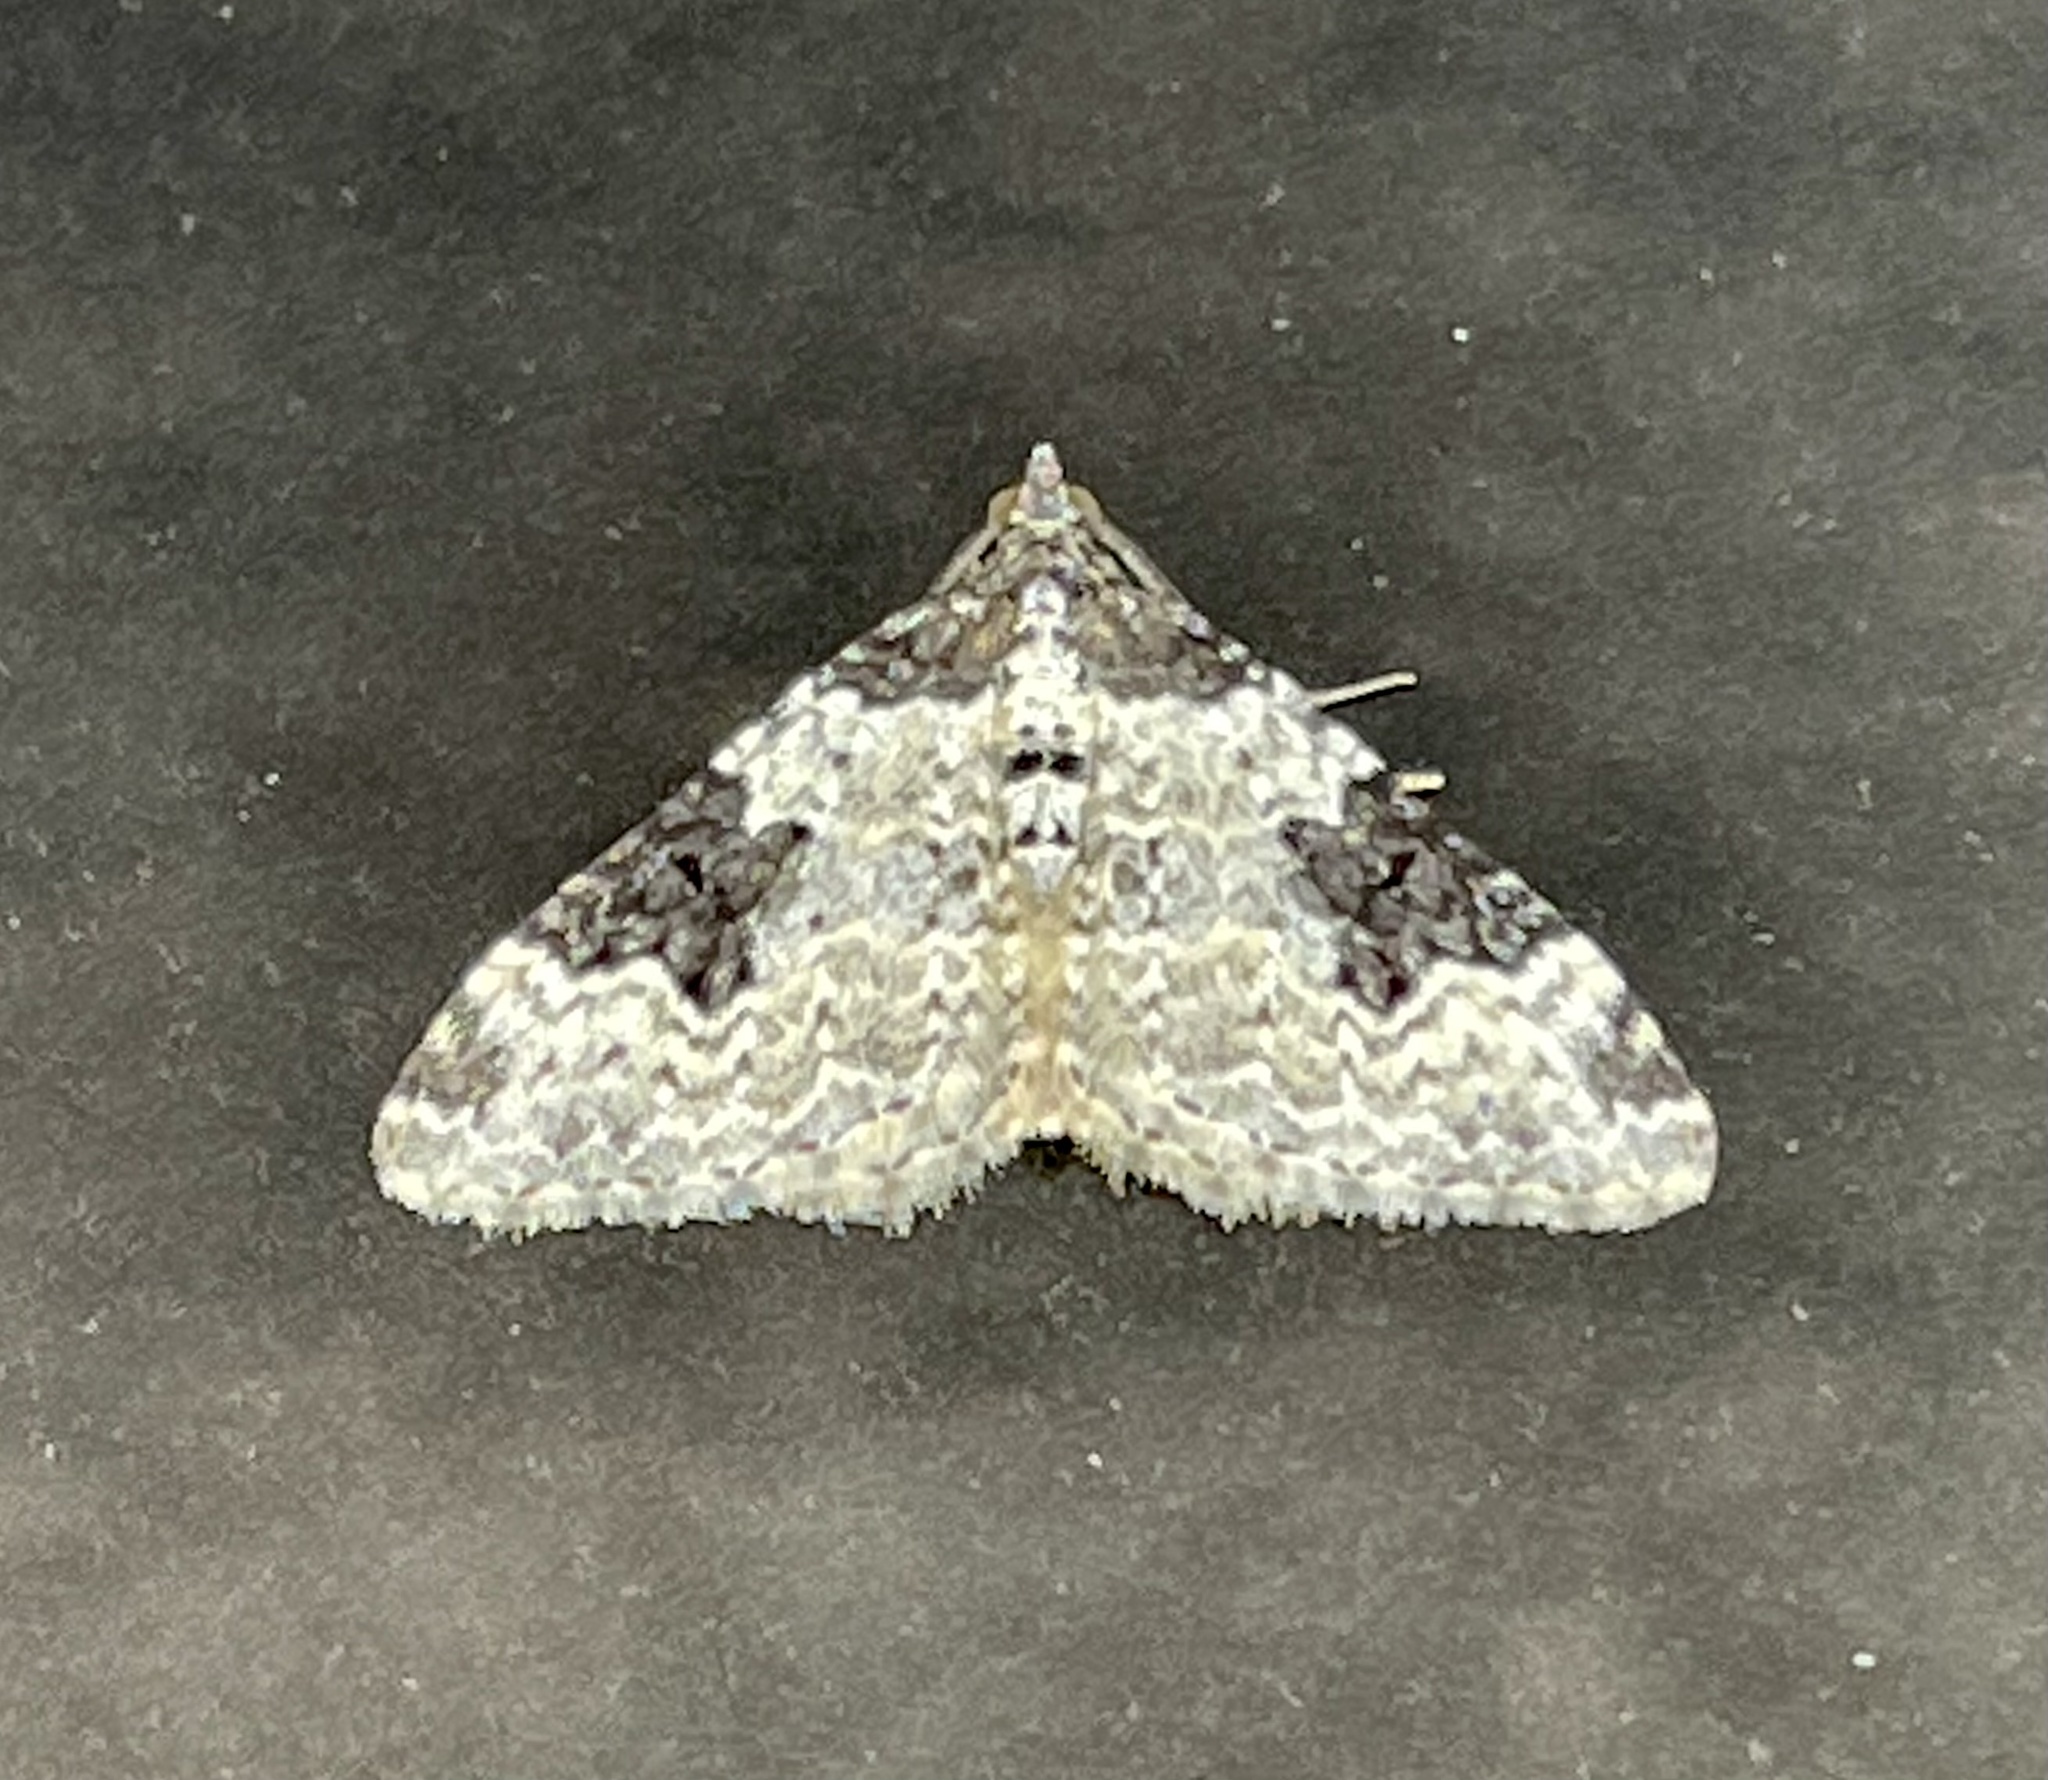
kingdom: Animalia
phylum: Arthropoda
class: Insecta
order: Lepidoptera
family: Geometridae
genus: Xanthorhoe
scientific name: Xanthorhoe fluctuata
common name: Garden carpet
